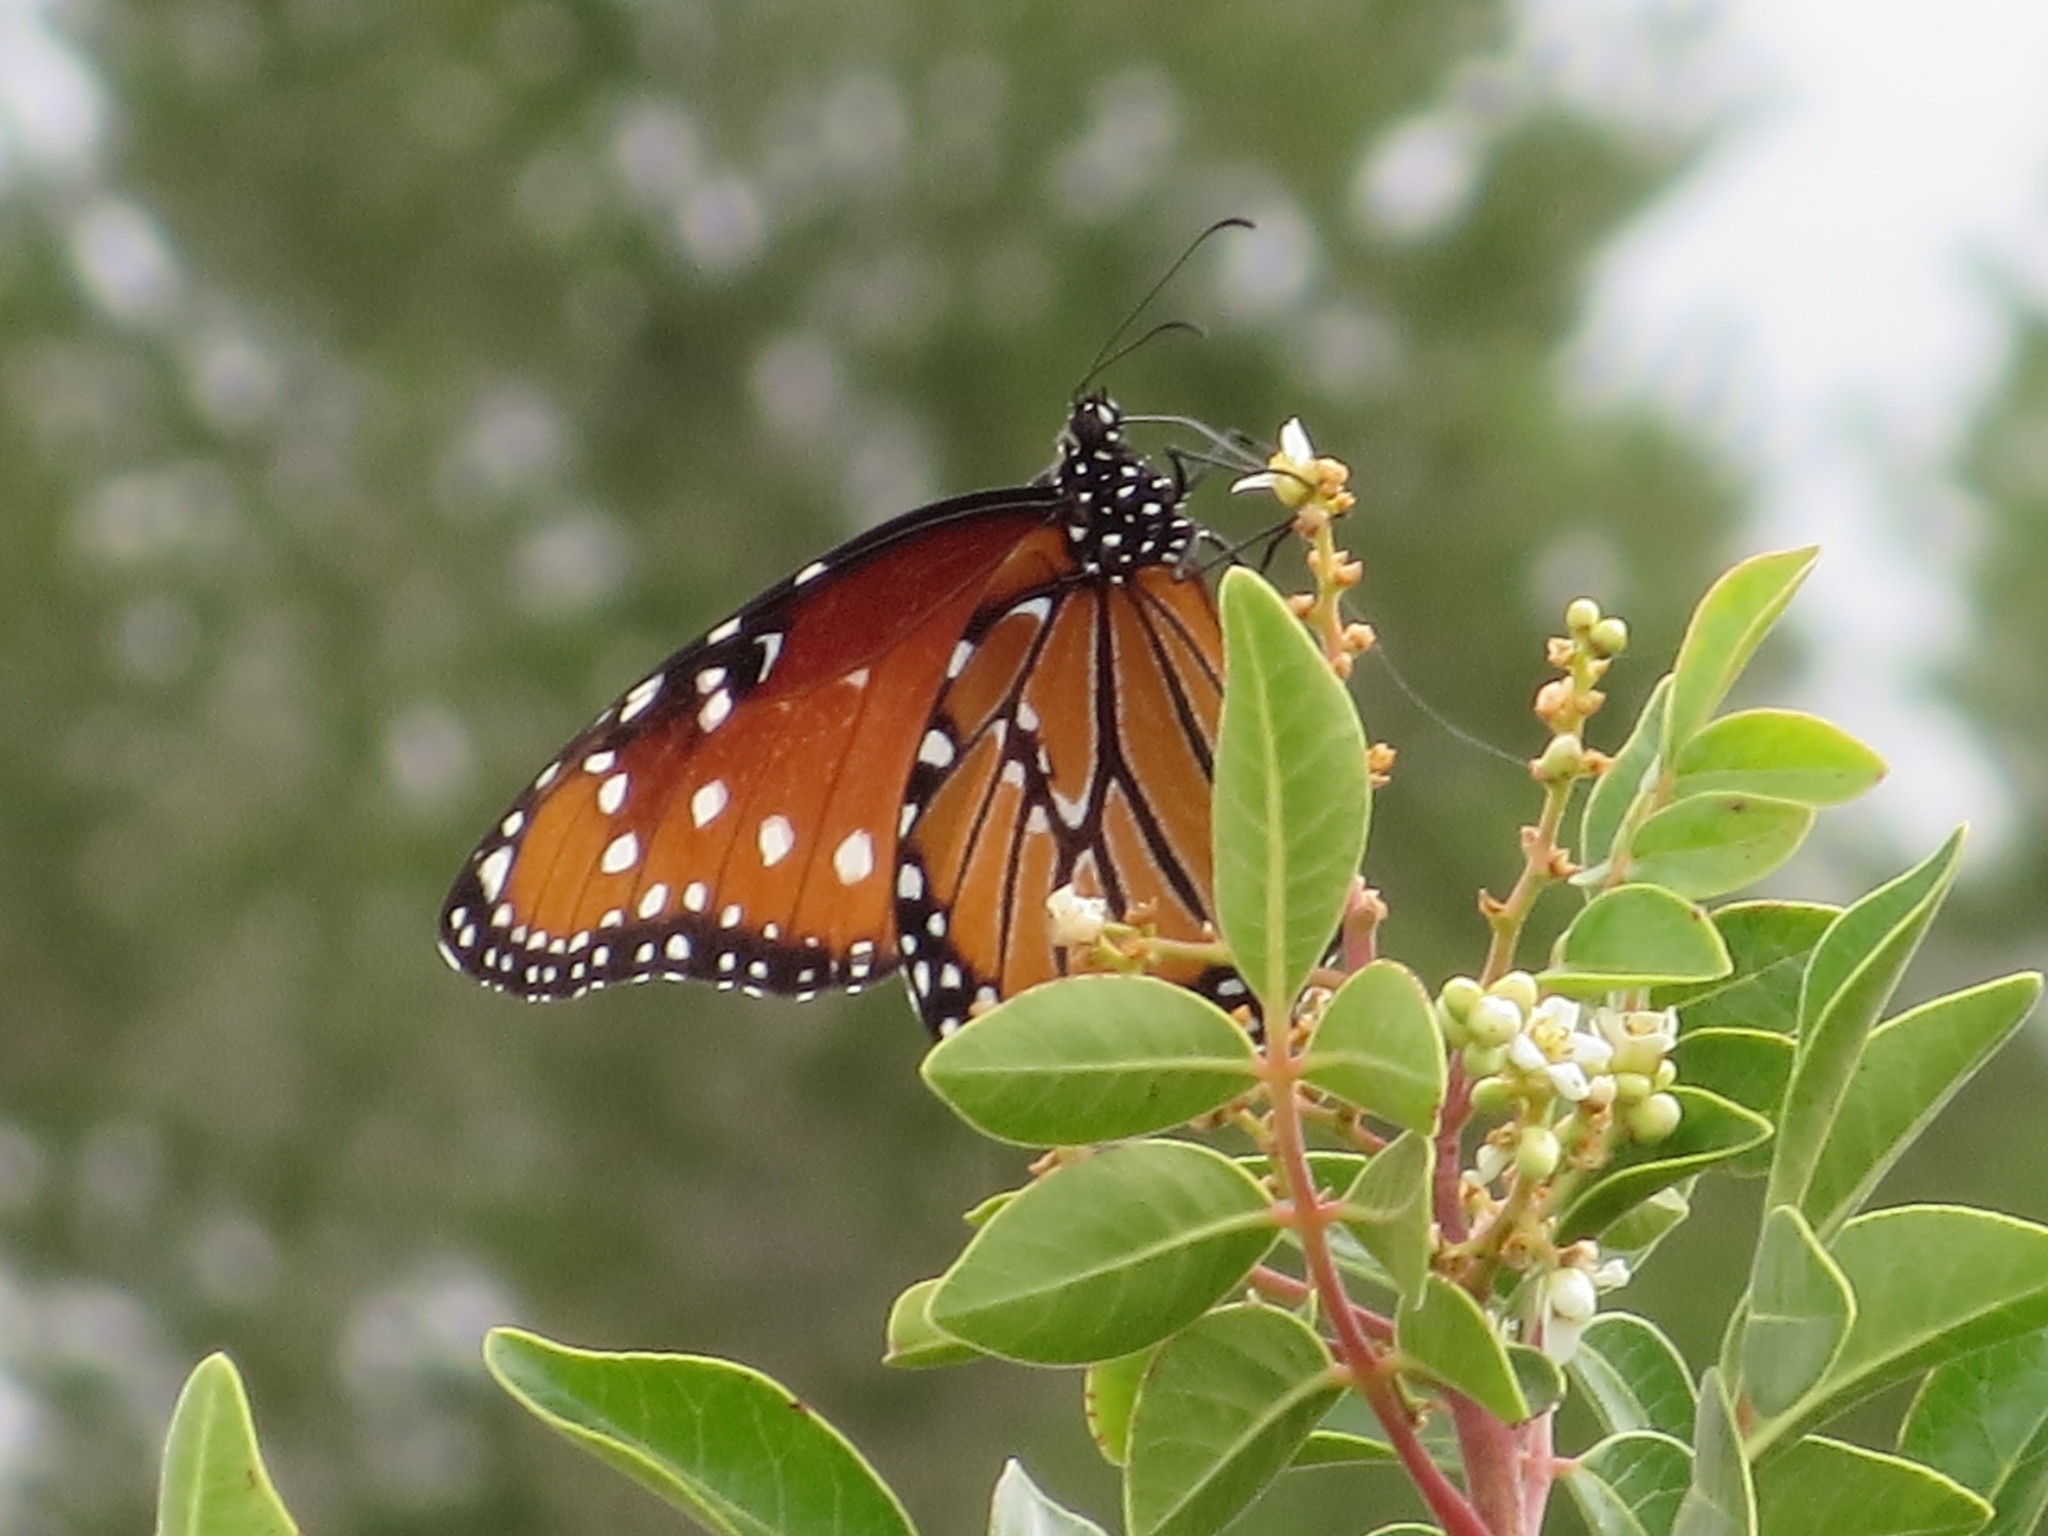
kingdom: Animalia
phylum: Arthropoda
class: Insecta
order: Lepidoptera
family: Nymphalidae
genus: Danaus
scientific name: Danaus gilippus
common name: Queen
